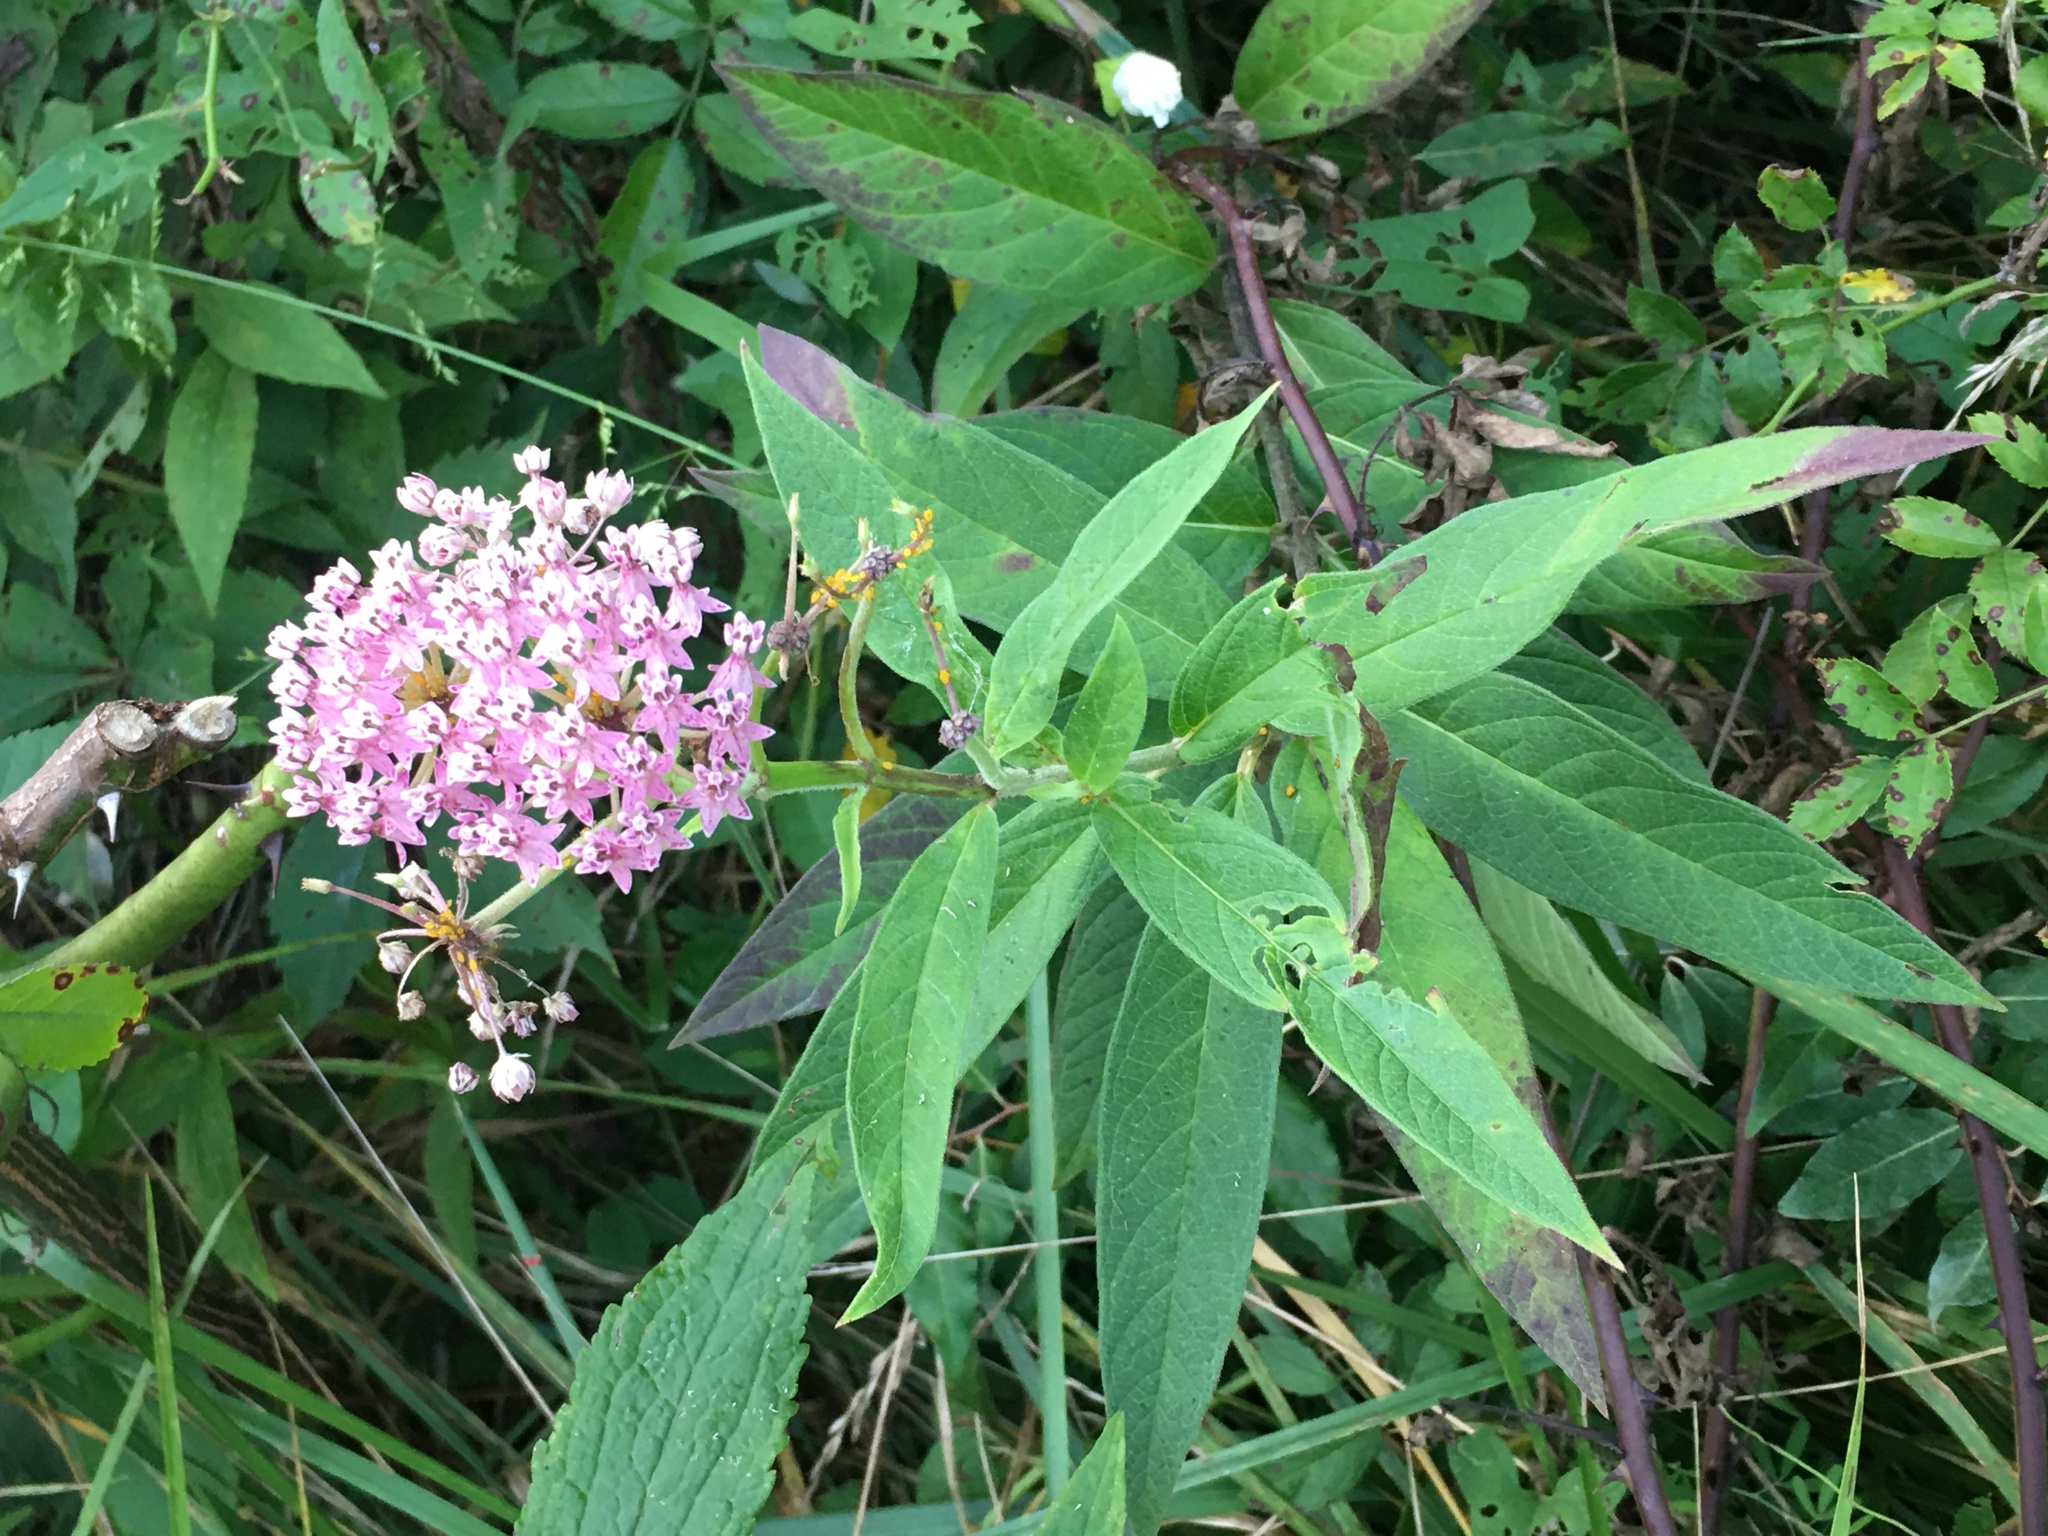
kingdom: Plantae
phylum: Tracheophyta
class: Magnoliopsida
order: Gentianales
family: Apocynaceae
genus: Asclepias
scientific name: Asclepias incarnata
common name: Swamp milkweed
